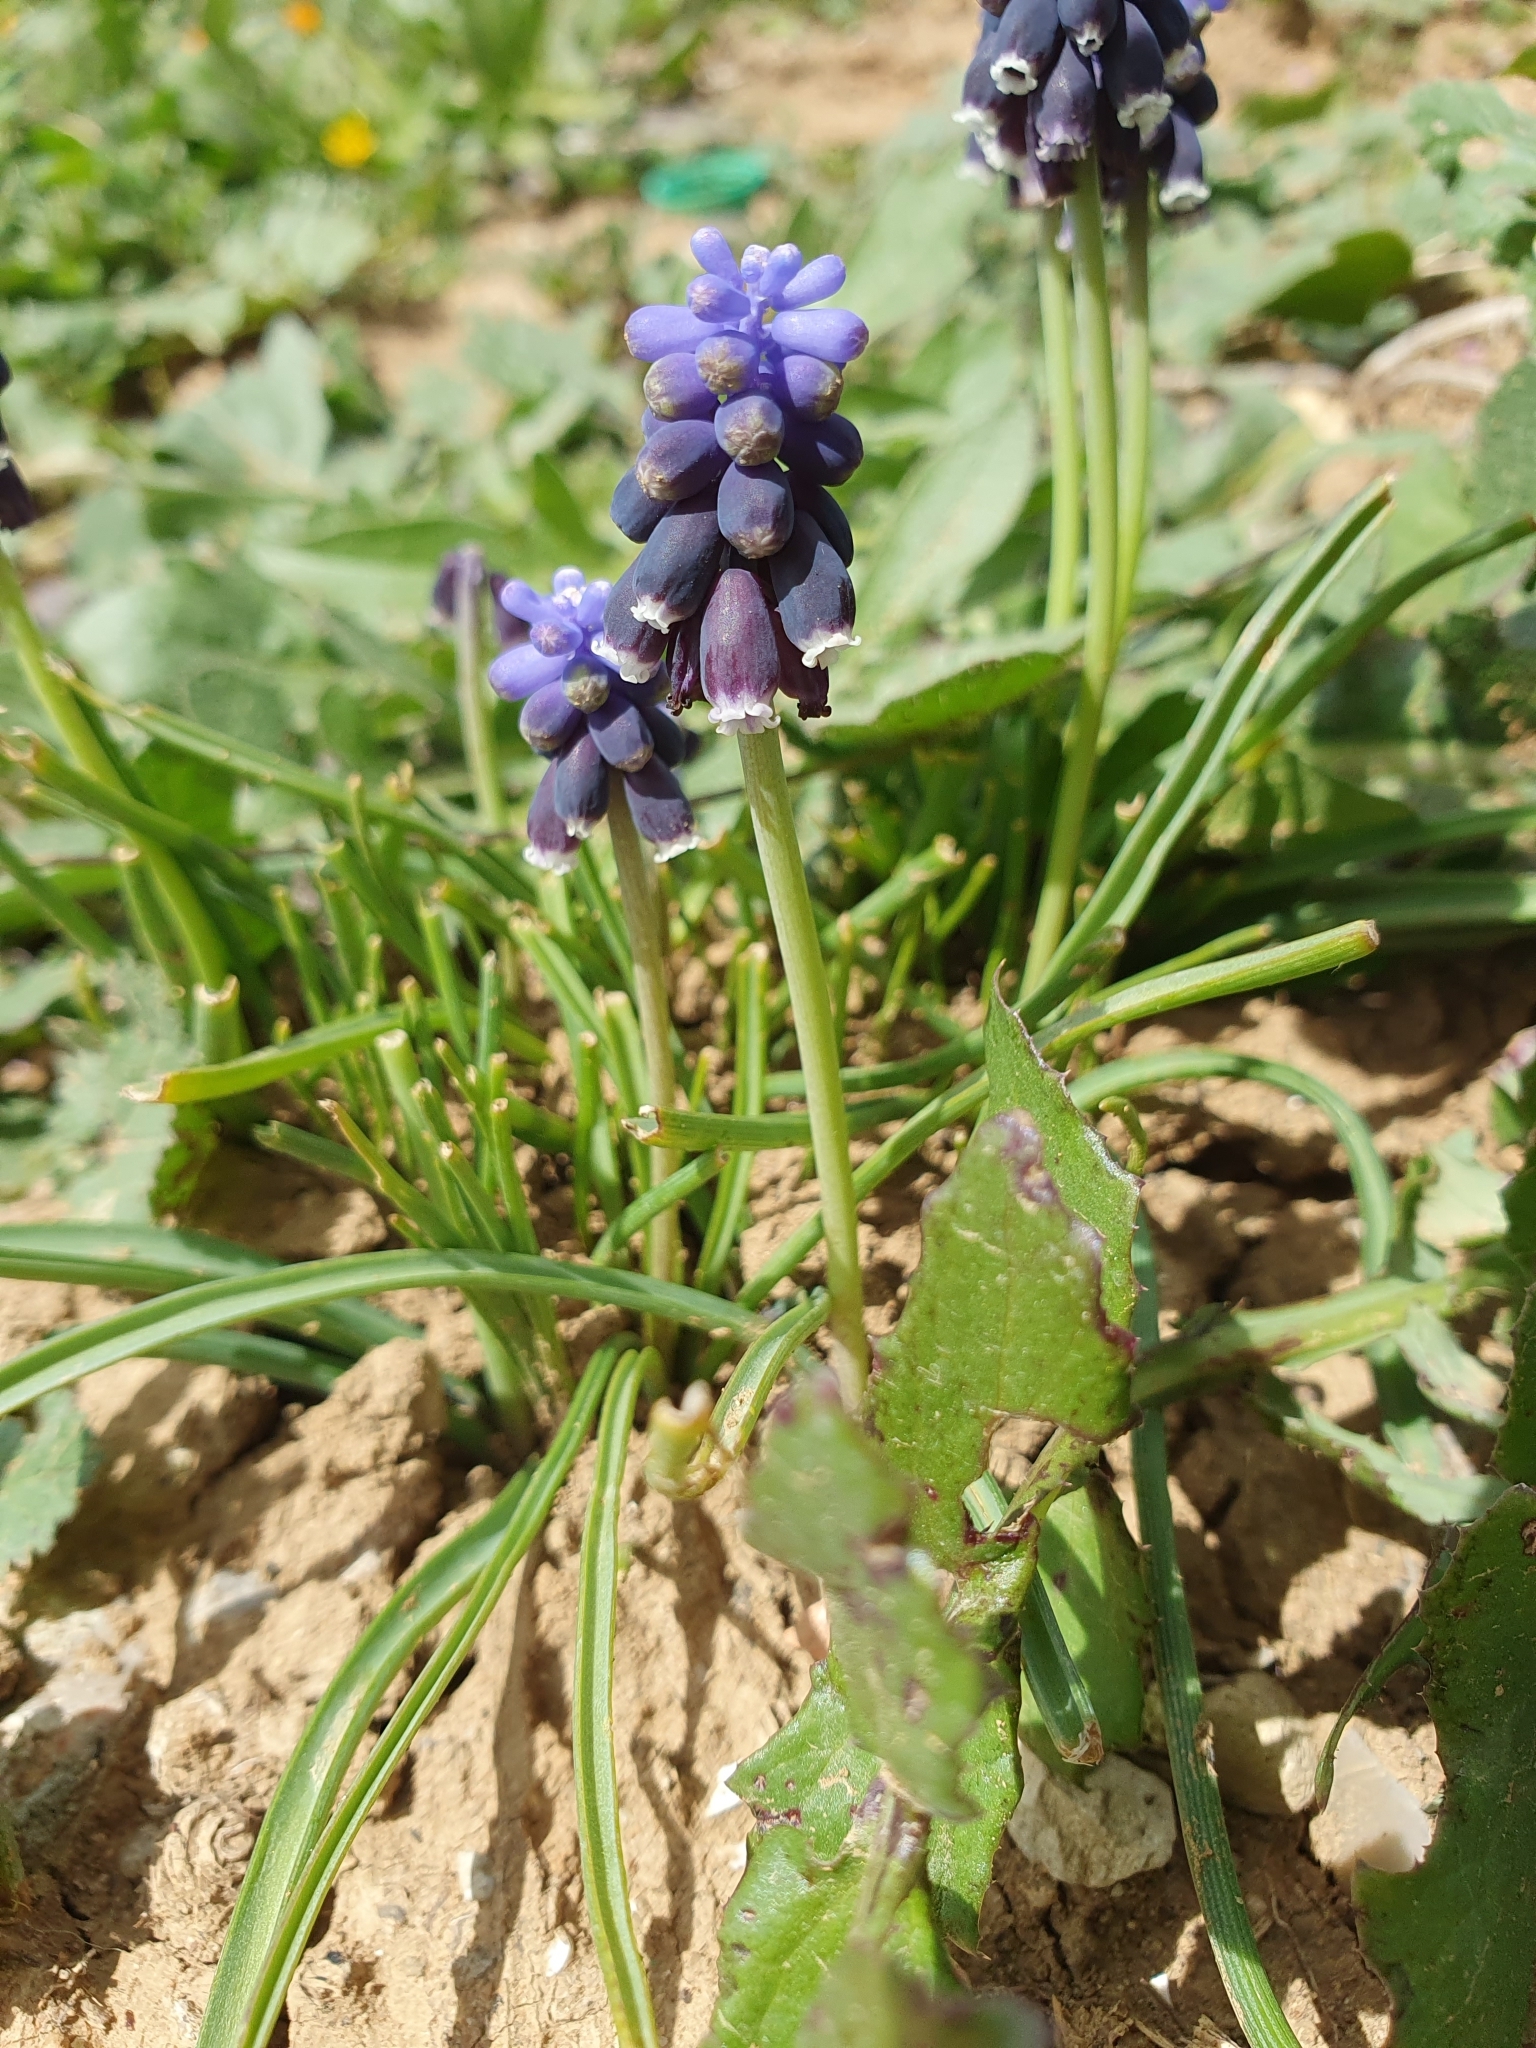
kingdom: Plantae
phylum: Tracheophyta
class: Liliopsida
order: Asparagales
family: Asparagaceae
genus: Muscari
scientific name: Muscari neglectum
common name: Grape-hyacinth
